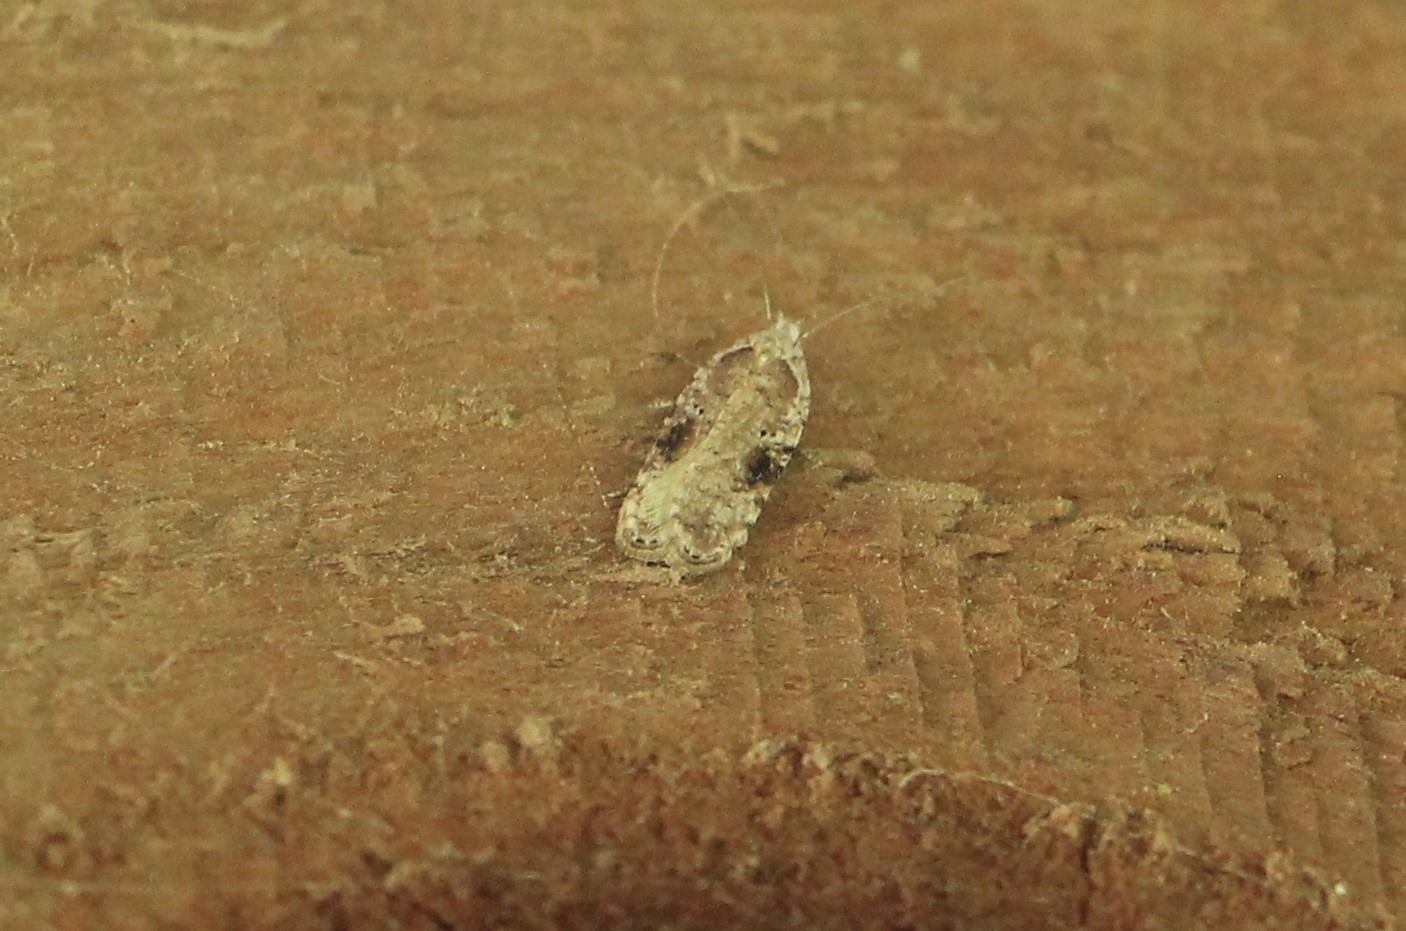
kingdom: Animalia
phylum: Arthropoda
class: Insecta
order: Lepidoptera
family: Depressariidae
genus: Agonopterix
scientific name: Agonopterix alstroemeriana
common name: Moth
